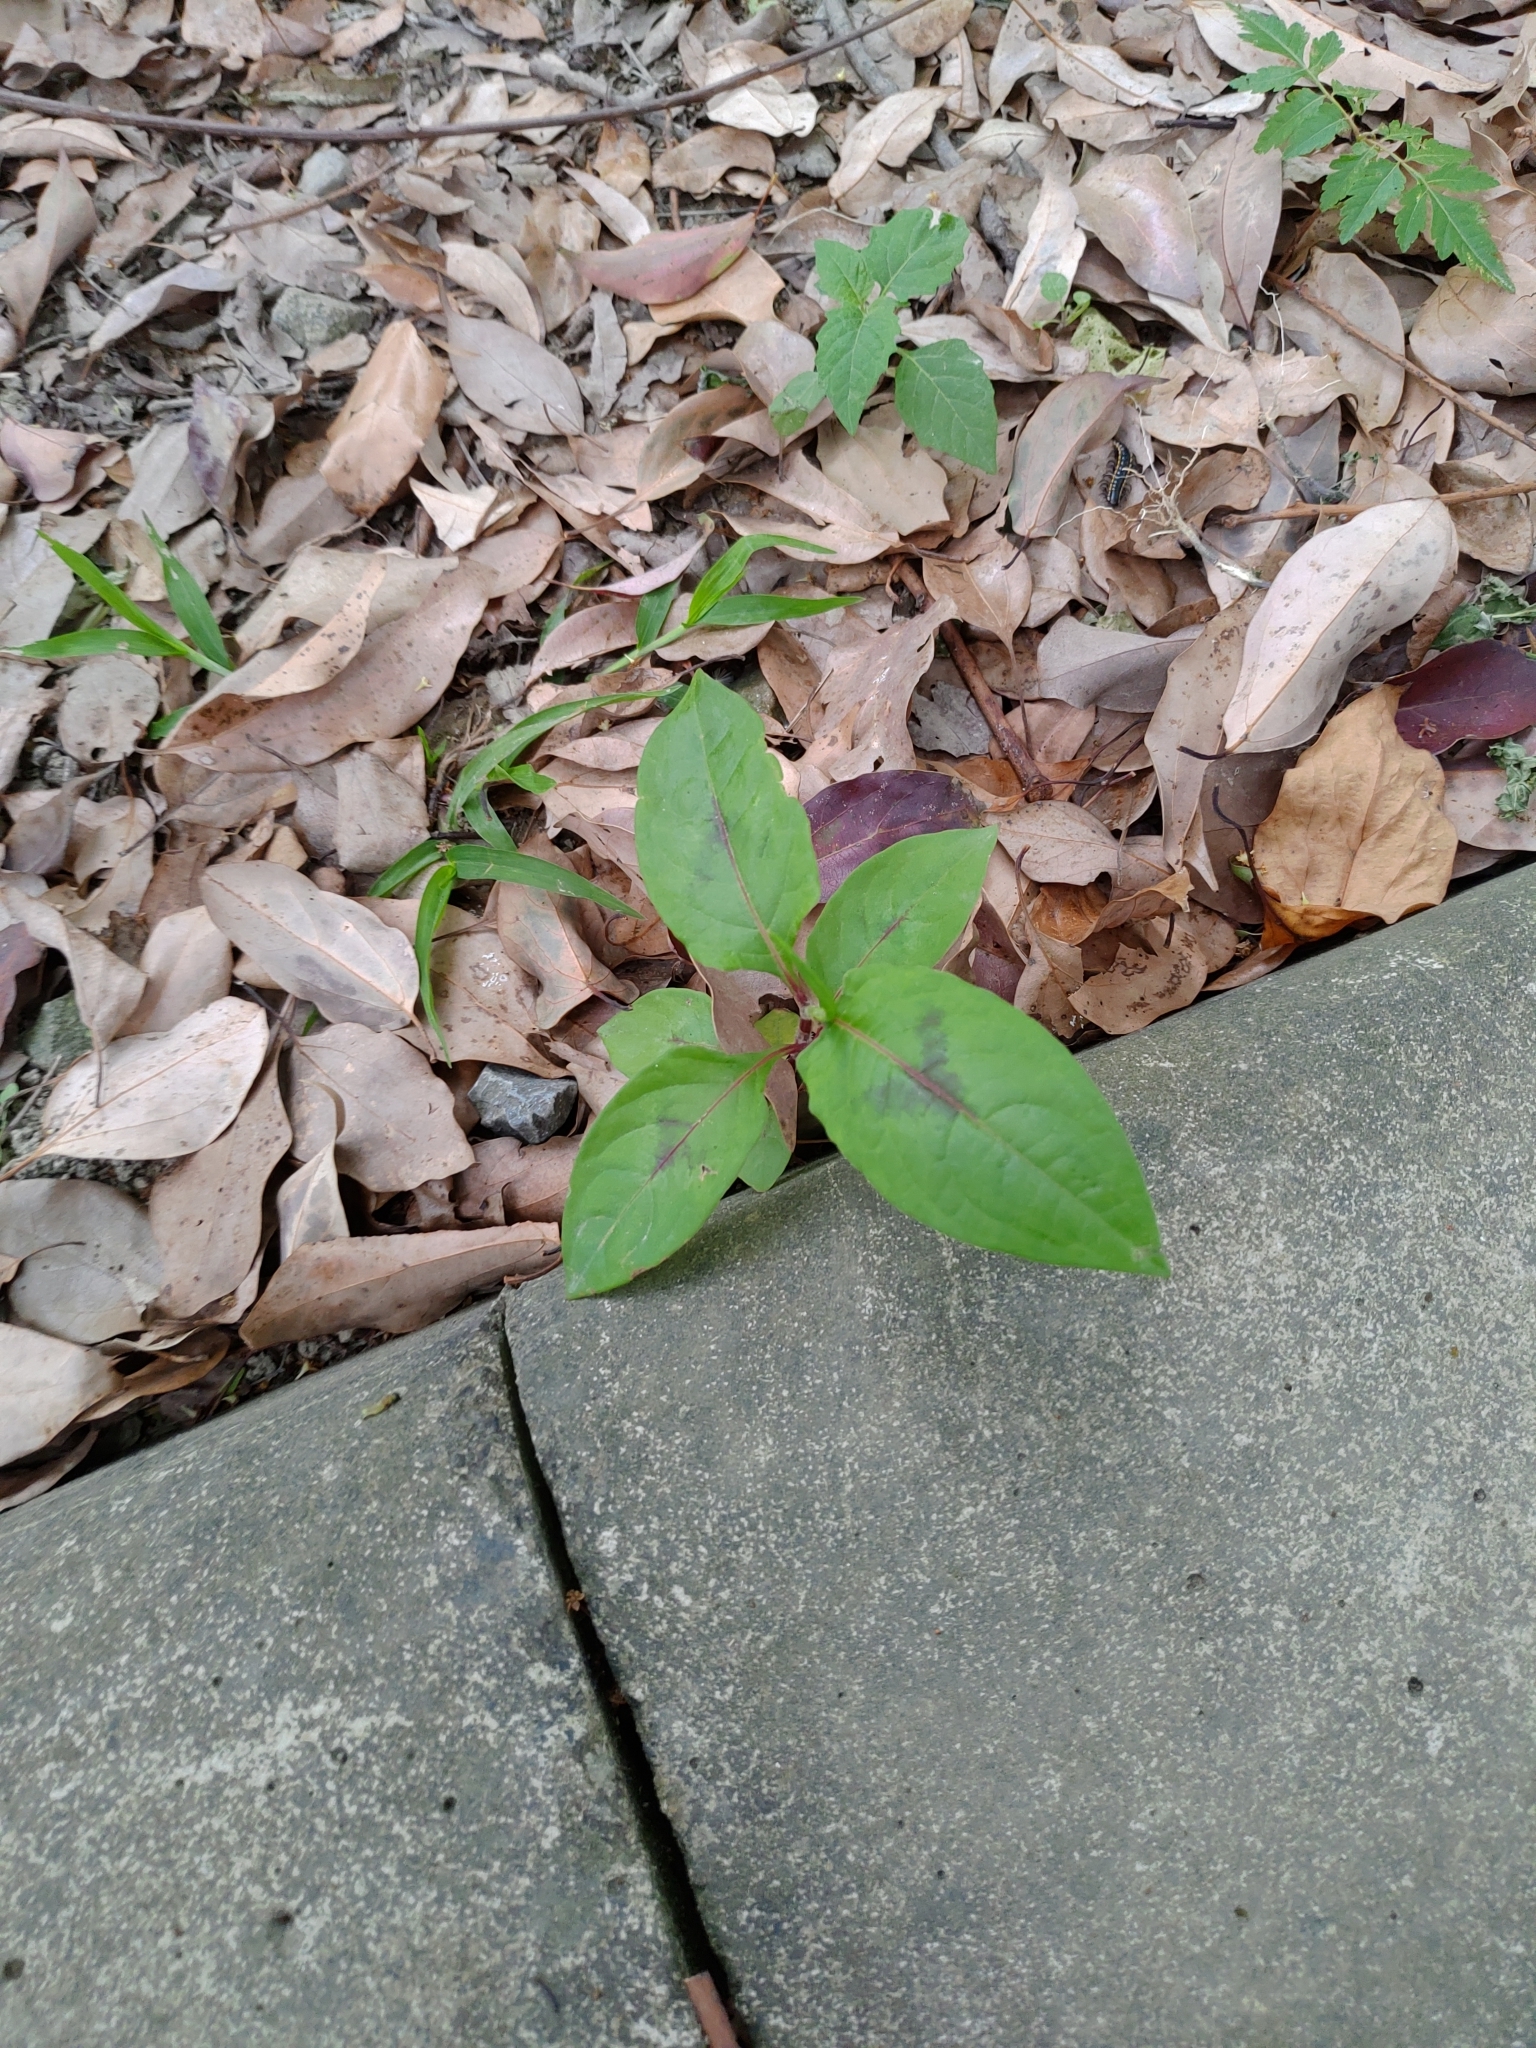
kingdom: Plantae
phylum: Tracheophyta
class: Magnoliopsida
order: Caryophyllales
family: Polygonaceae
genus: Persicaria
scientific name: Persicaria chinensis
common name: Chinese knotweed
